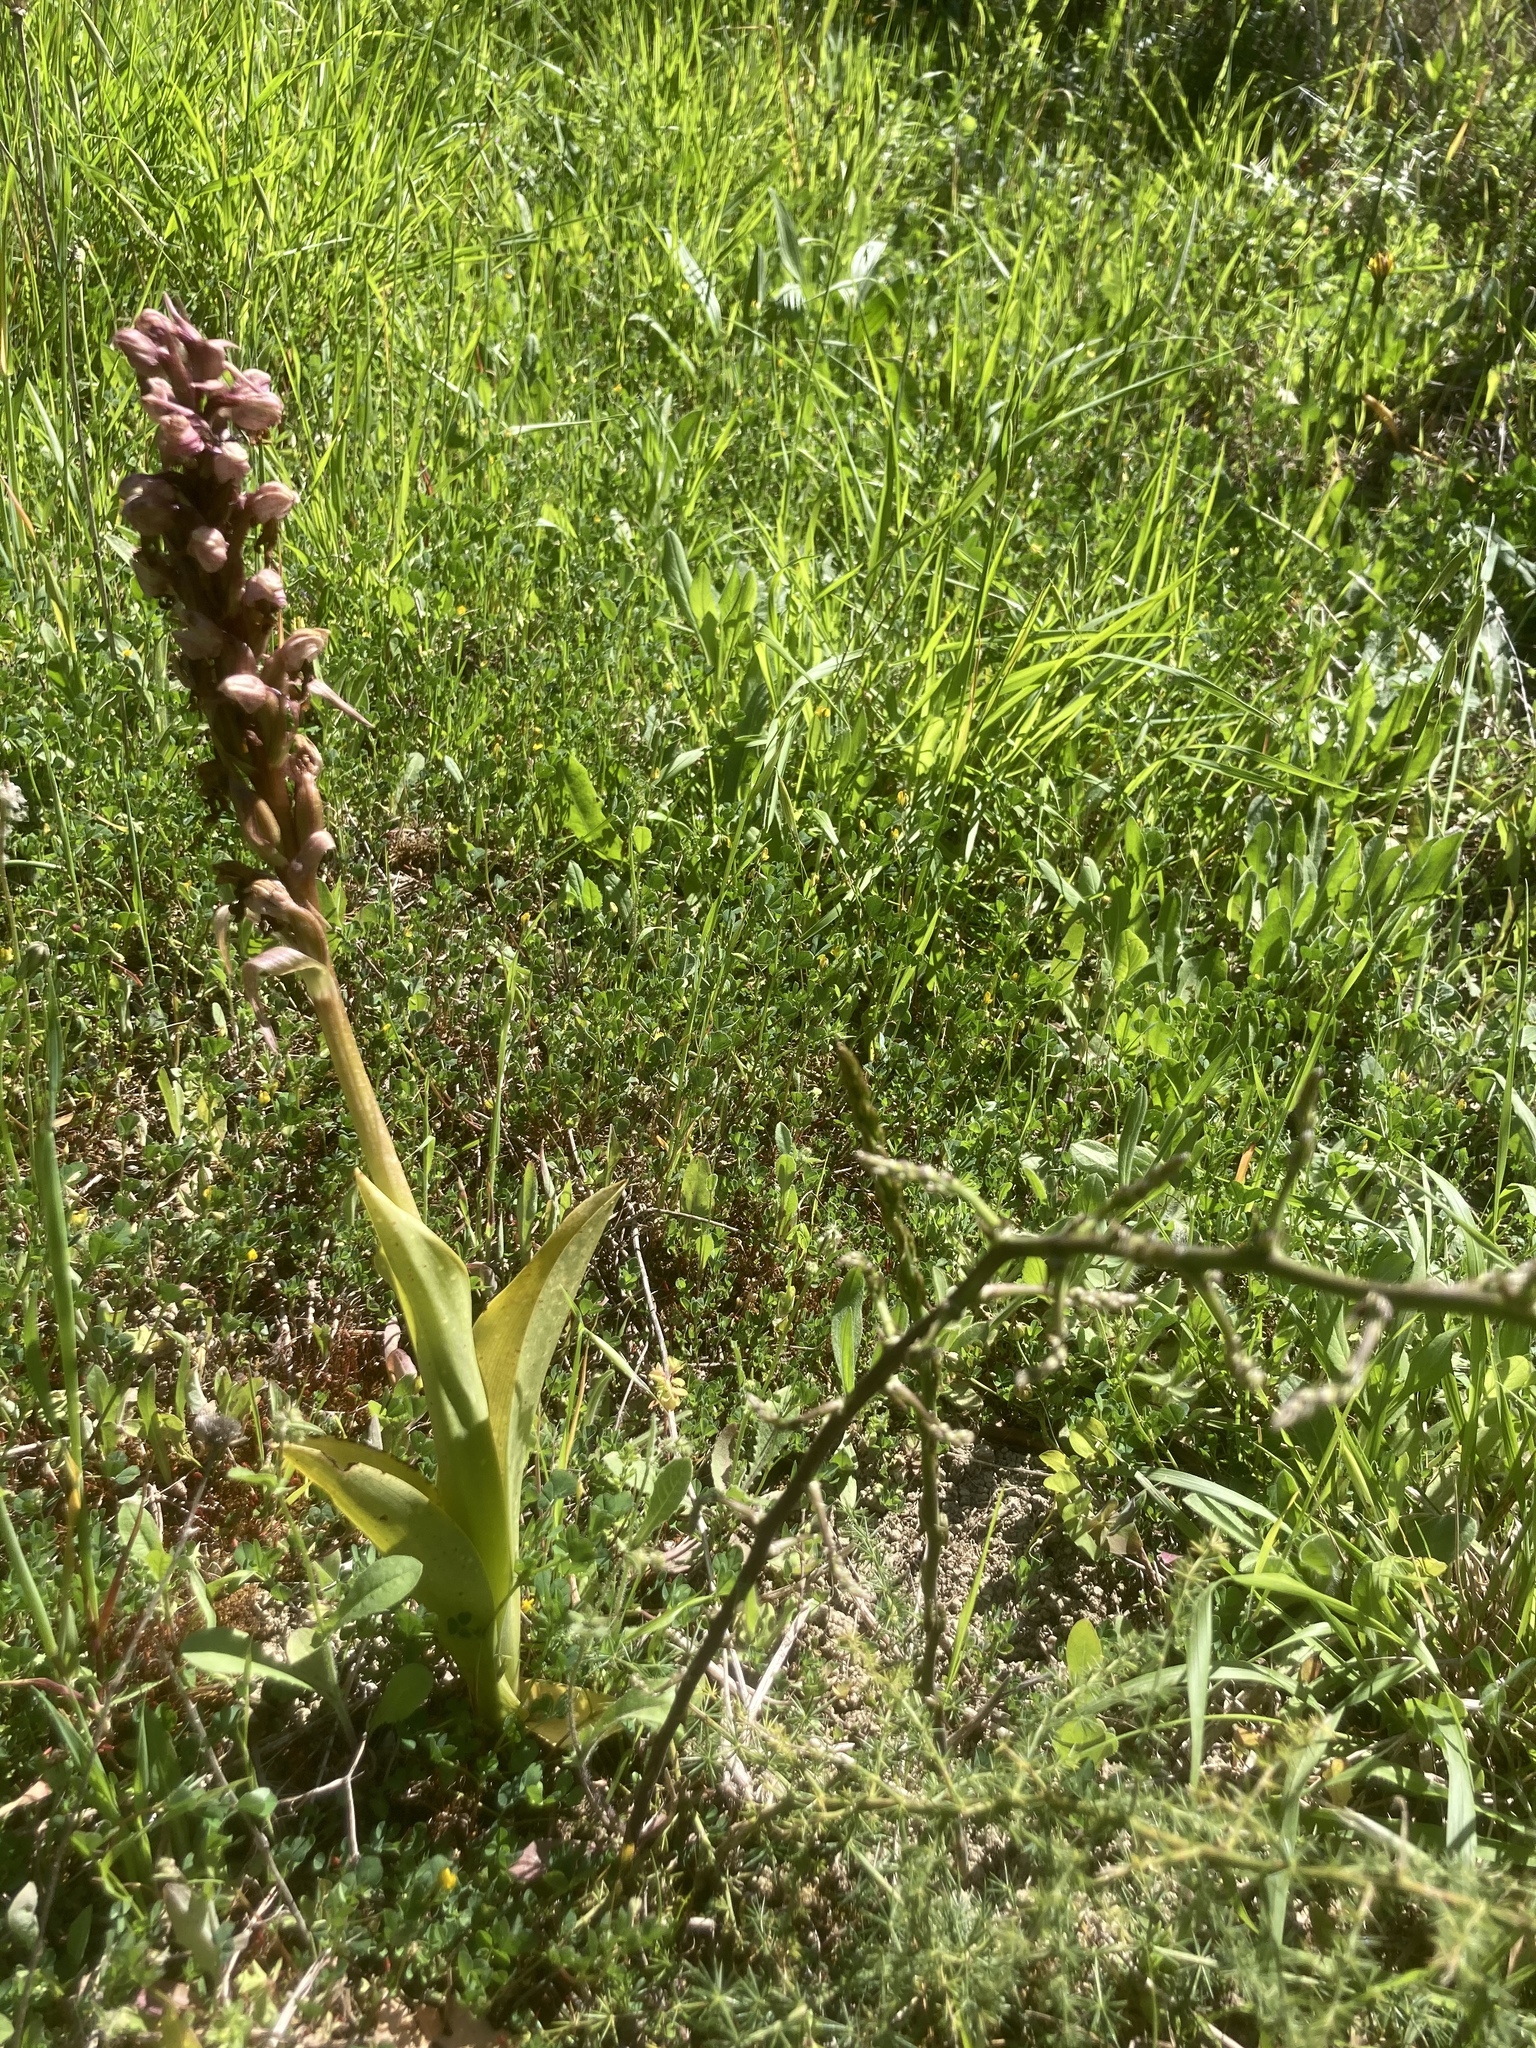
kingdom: Plantae
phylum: Tracheophyta
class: Liliopsida
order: Asparagales
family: Orchidaceae
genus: Himantoglossum
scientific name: Himantoglossum robertianum
